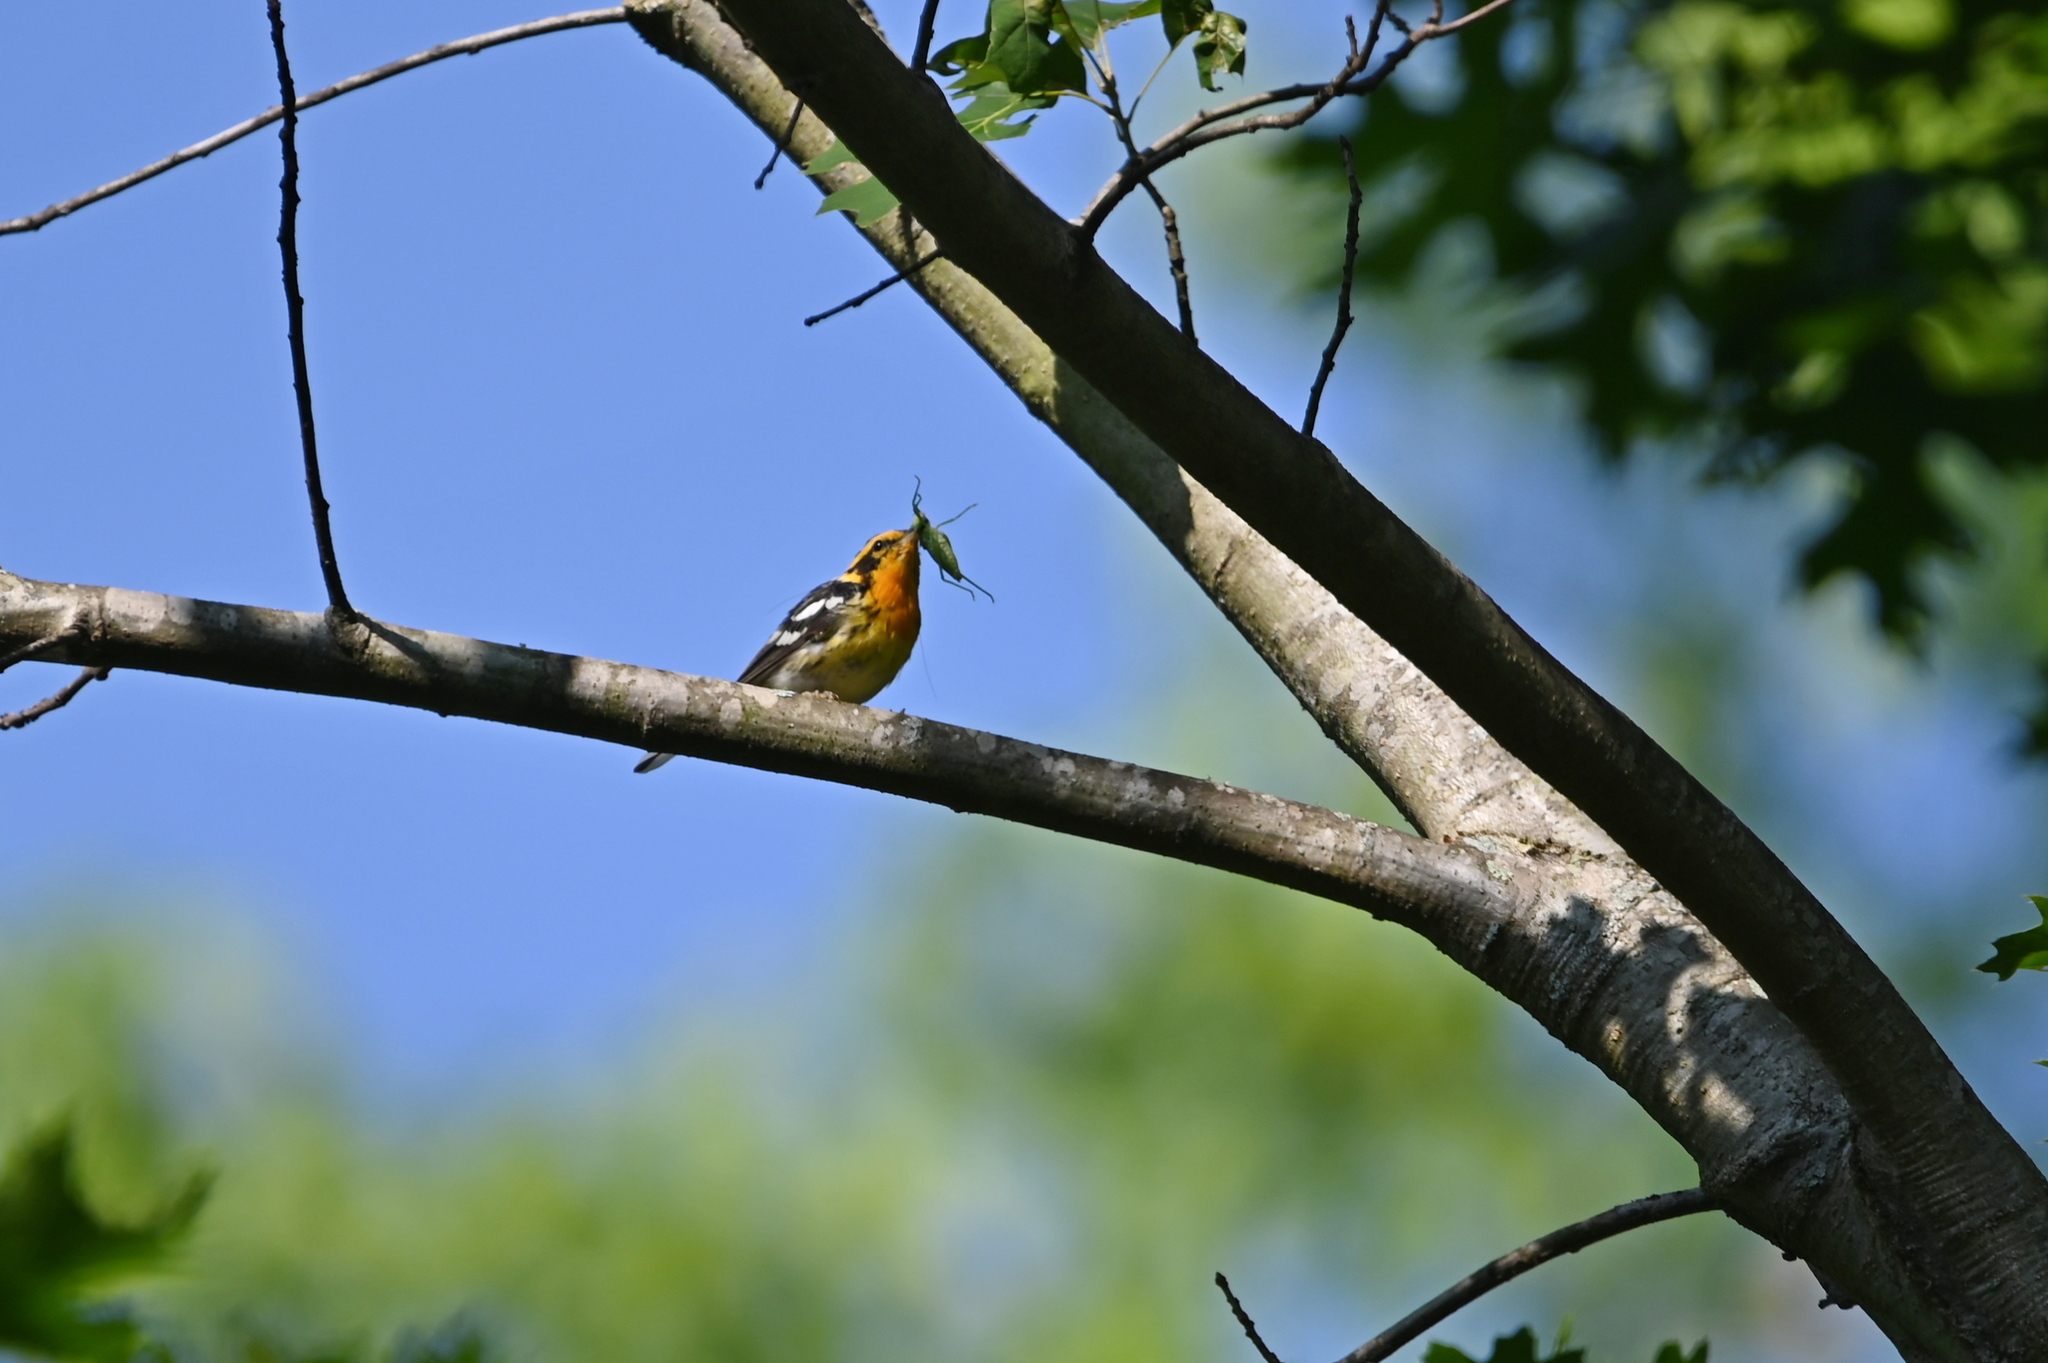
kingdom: Animalia
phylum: Chordata
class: Aves
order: Passeriformes
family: Parulidae
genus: Setophaga
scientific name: Setophaga fusca
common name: Blackburnian warbler
